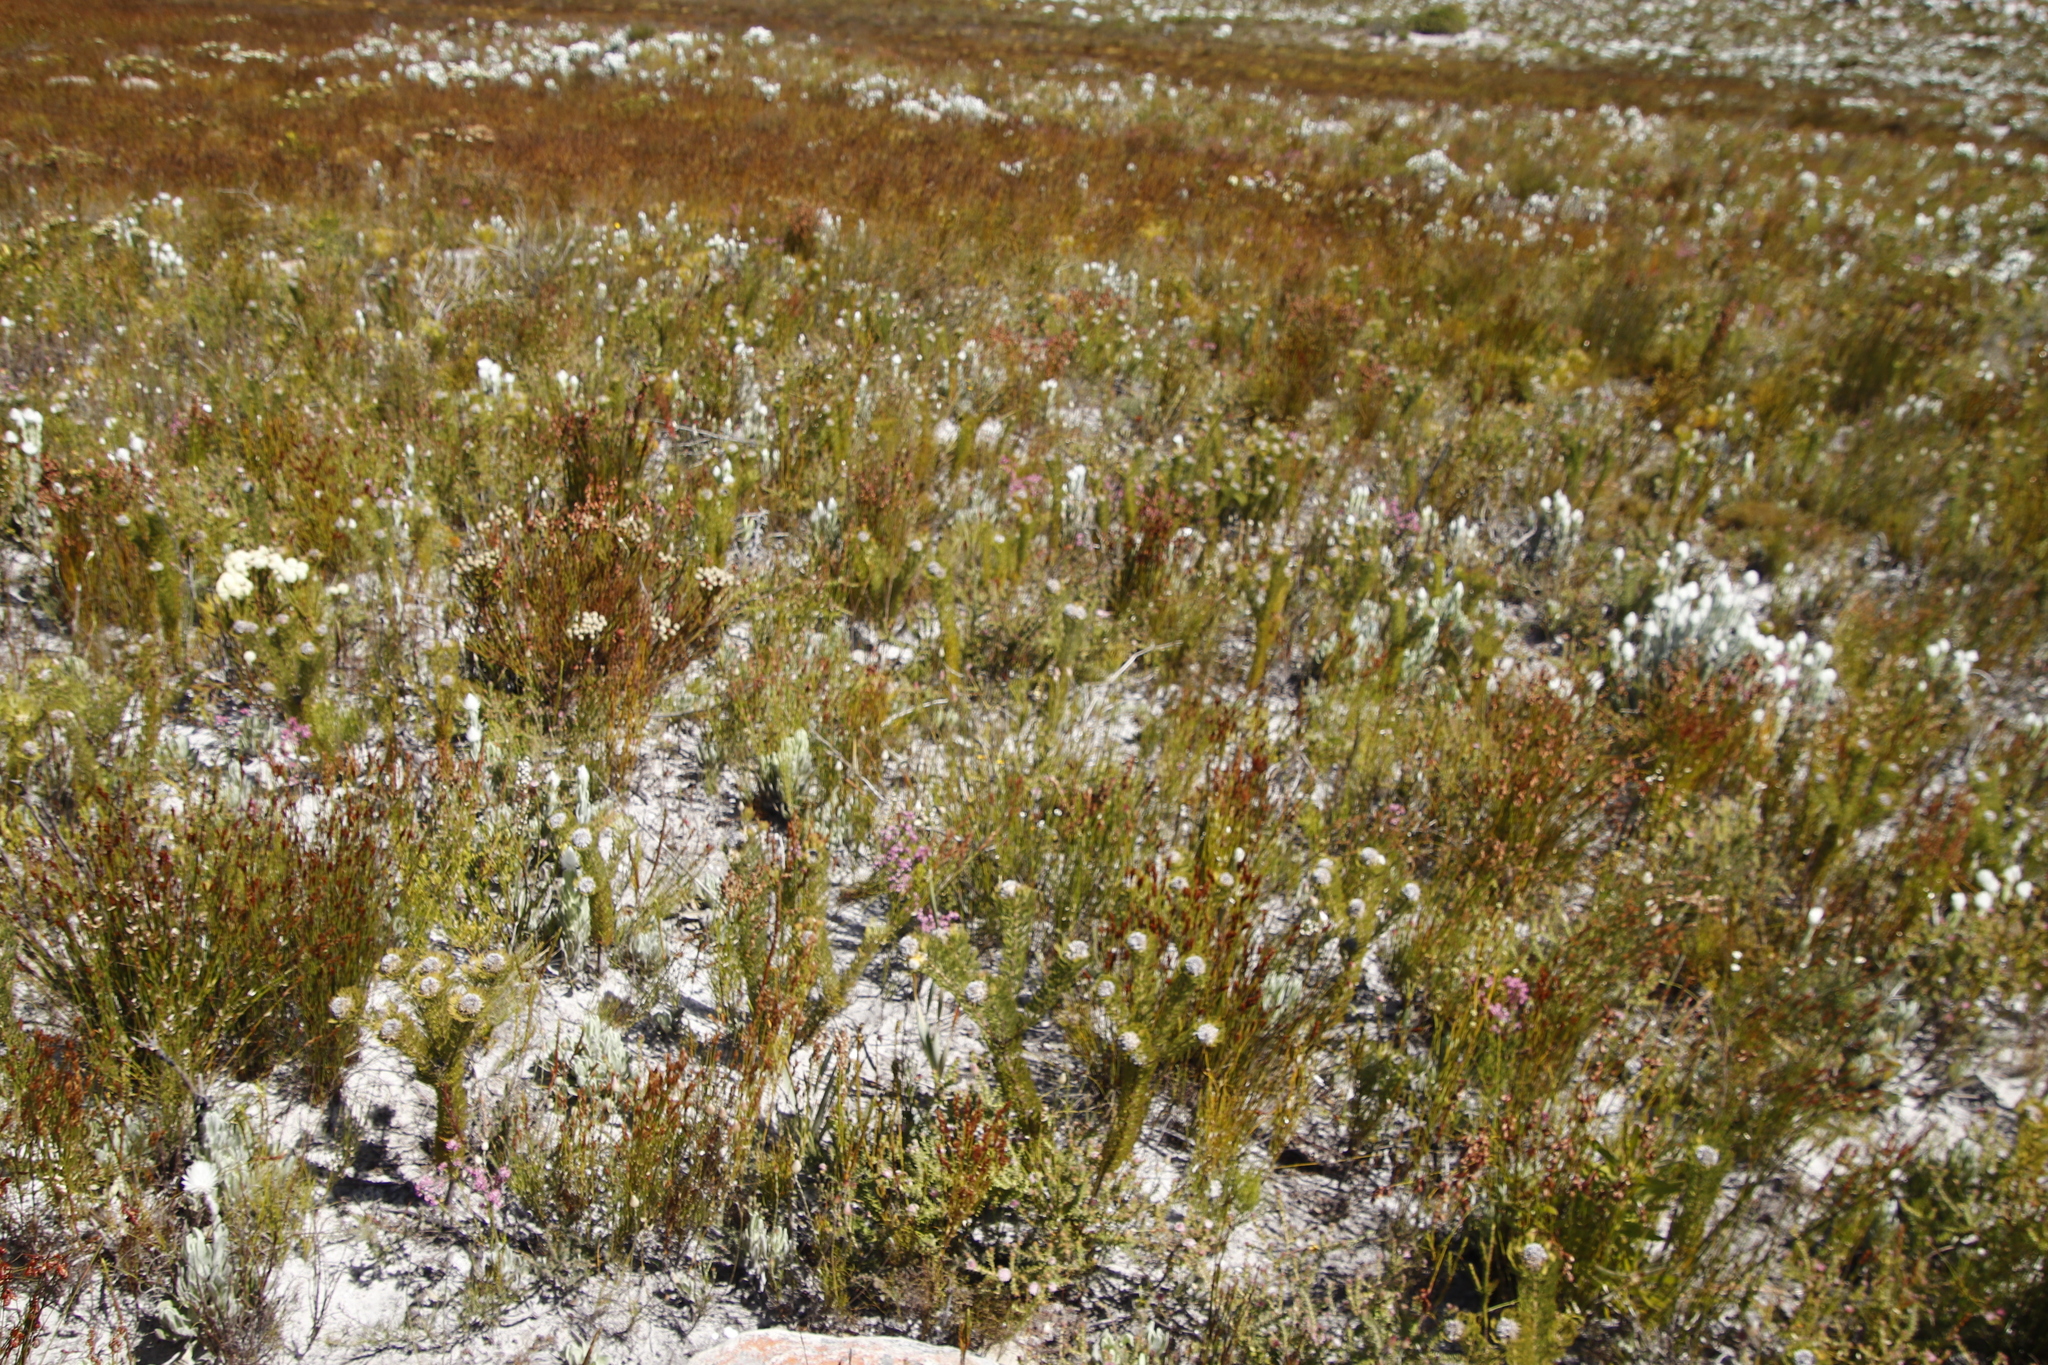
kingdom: Plantae
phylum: Tracheophyta
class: Magnoliopsida
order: Proteales
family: Proteaceae
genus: Serruria
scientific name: Serruria villosa
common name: Golden spiderhead
